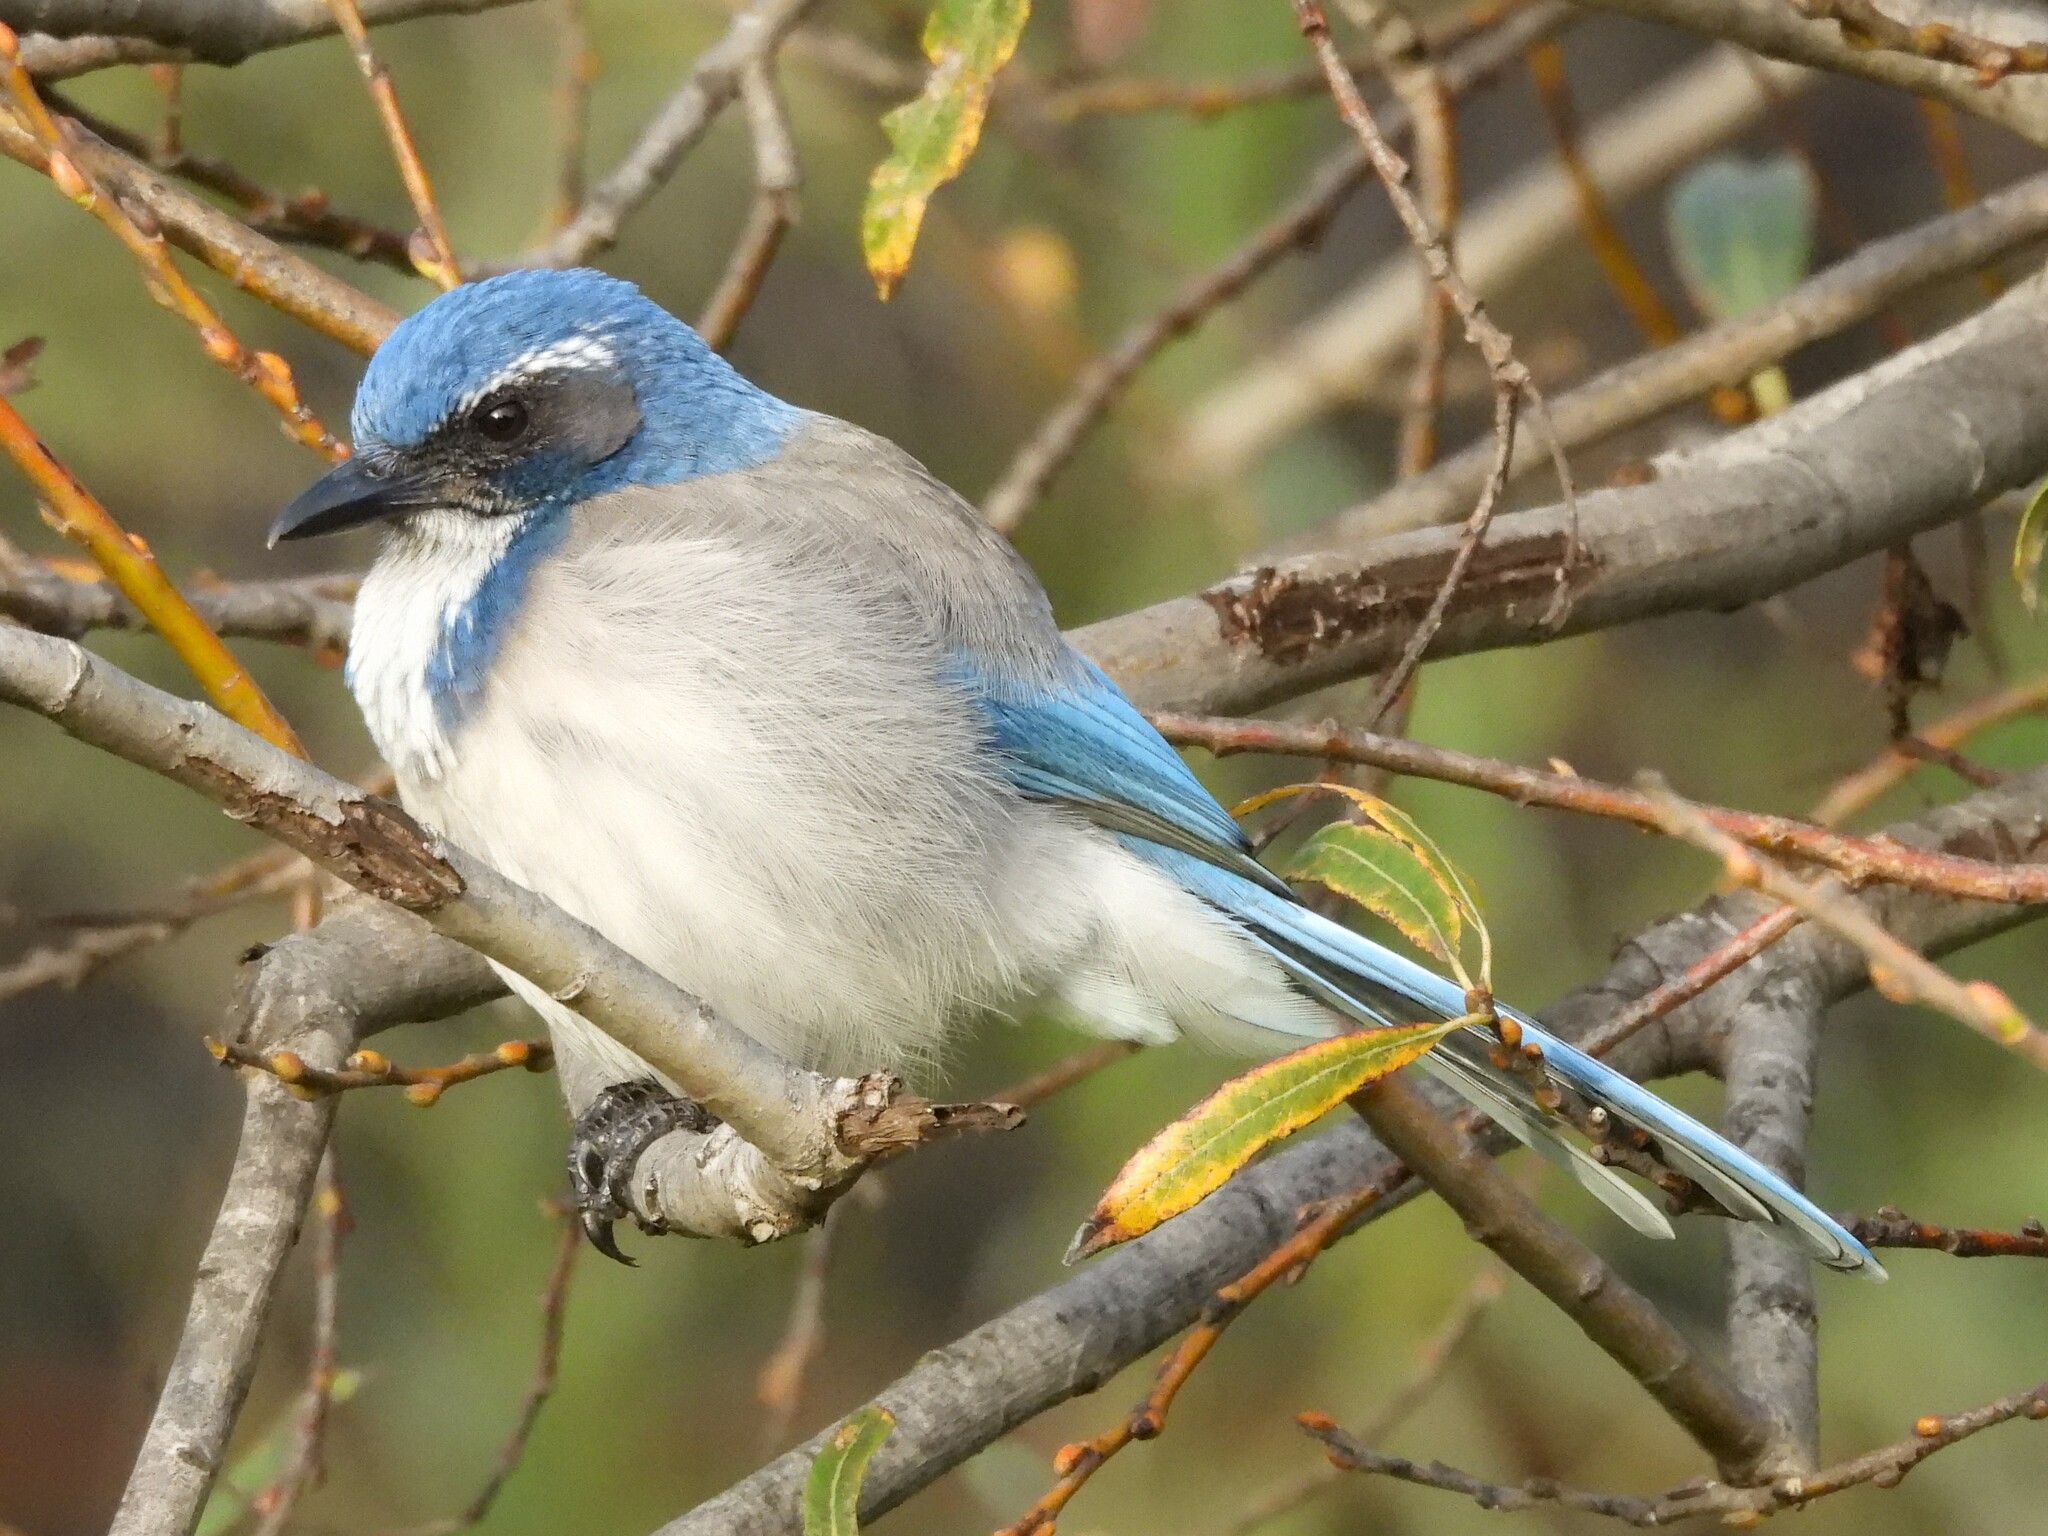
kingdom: Animalia
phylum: Chordata
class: Aves
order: Passeriformes
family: Corvidae
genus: Aphelocoma
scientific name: Aphelocoma californica
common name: California scrub-jay
